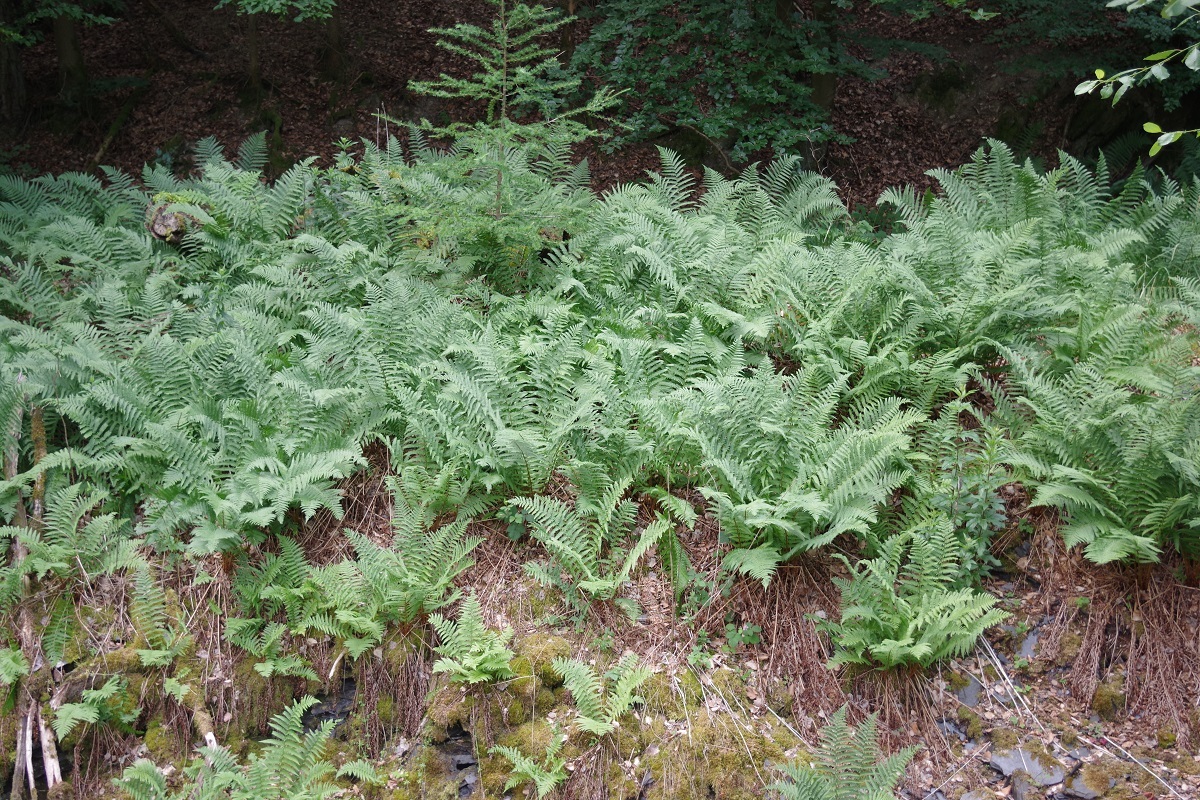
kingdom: Plantae
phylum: Tracheophyta
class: Polypodiopsida
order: Polypodiales
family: Dryopteridaceae
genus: Dryopteris
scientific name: Dryopteris filix-mas
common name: Male fern
